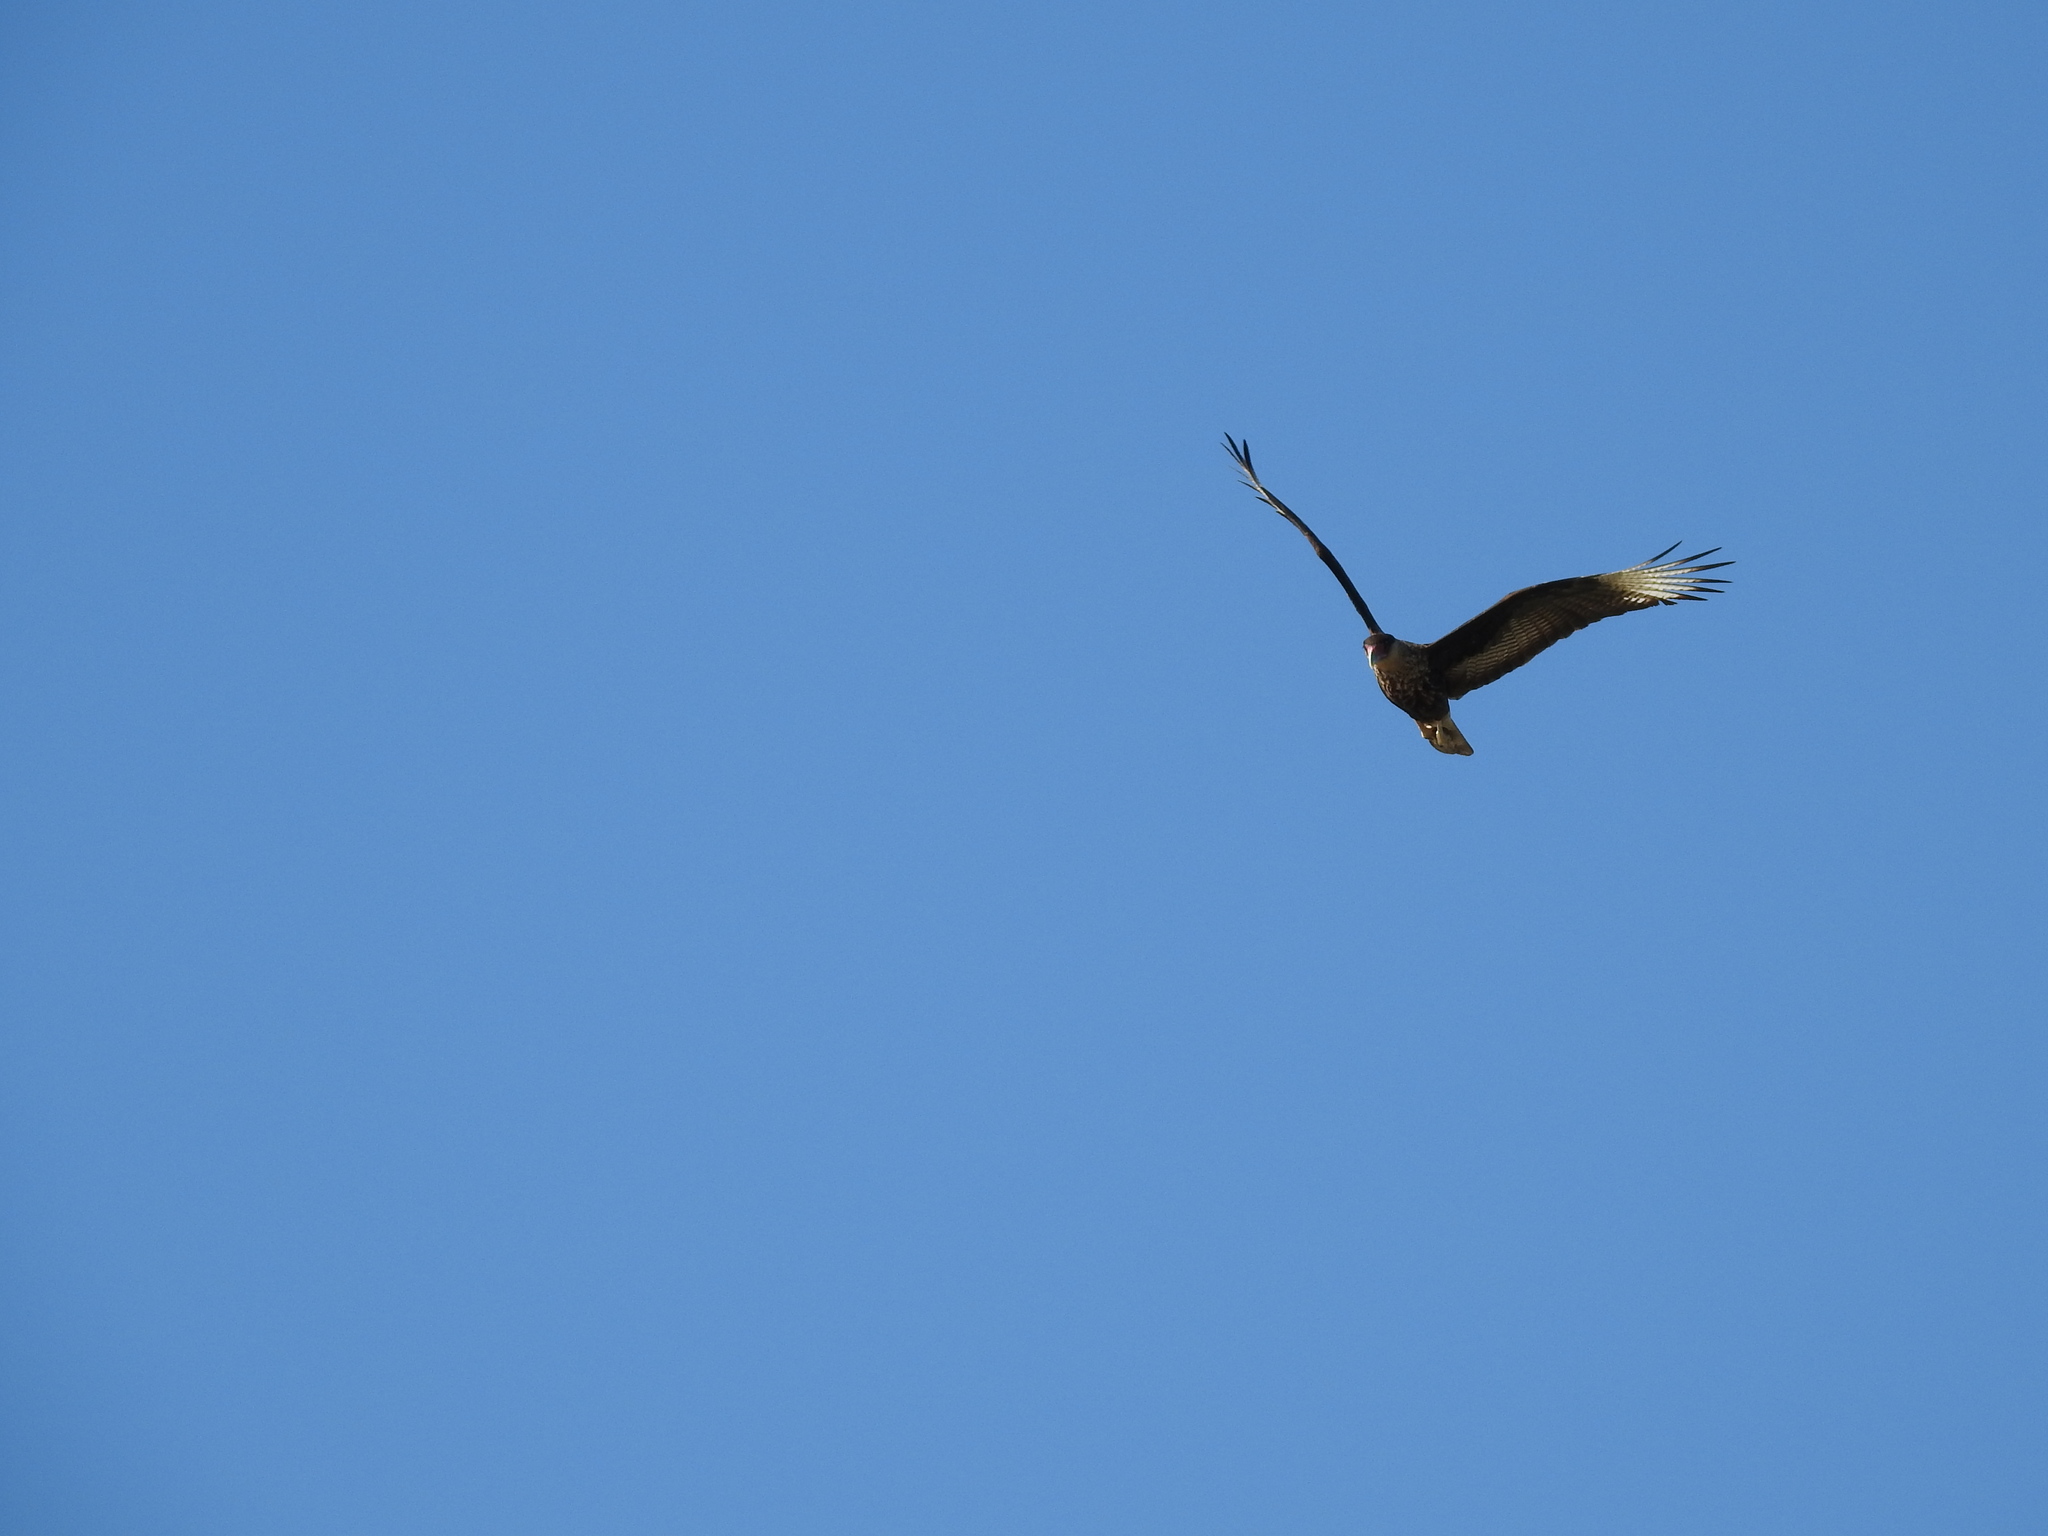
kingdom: Animalia
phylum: Chordata
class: Aves
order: Falconiformes
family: Falconidae
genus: Caracara
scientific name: Caracara plancus
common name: Southern caracara
